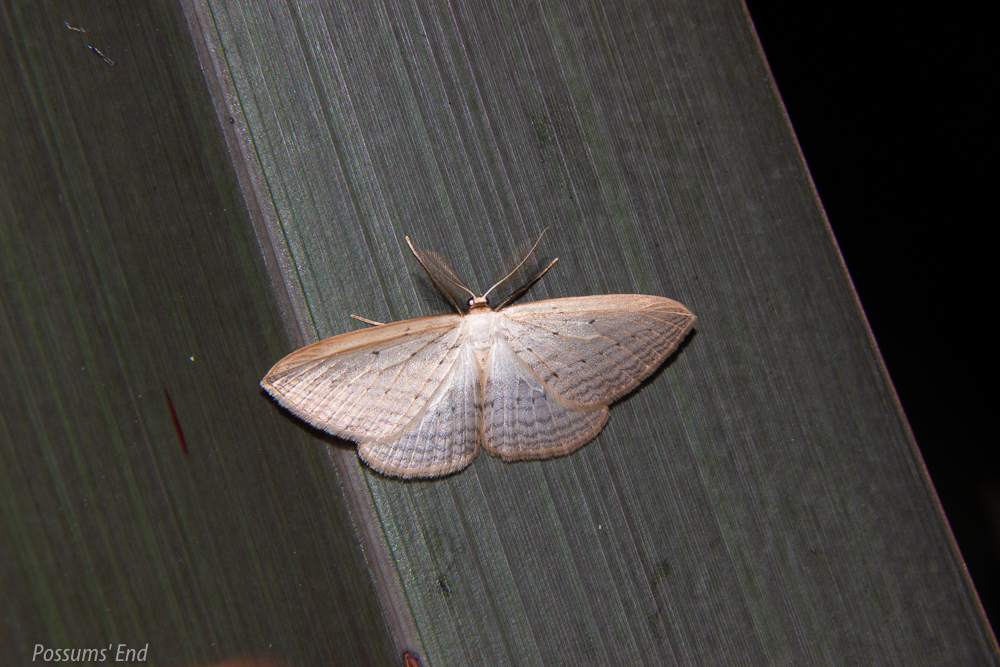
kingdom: Animalia
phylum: Arthropoda
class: Insecta
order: Lepidoptera
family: Geometridae
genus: Orthoclydon
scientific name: Orthoclydon praefectata
